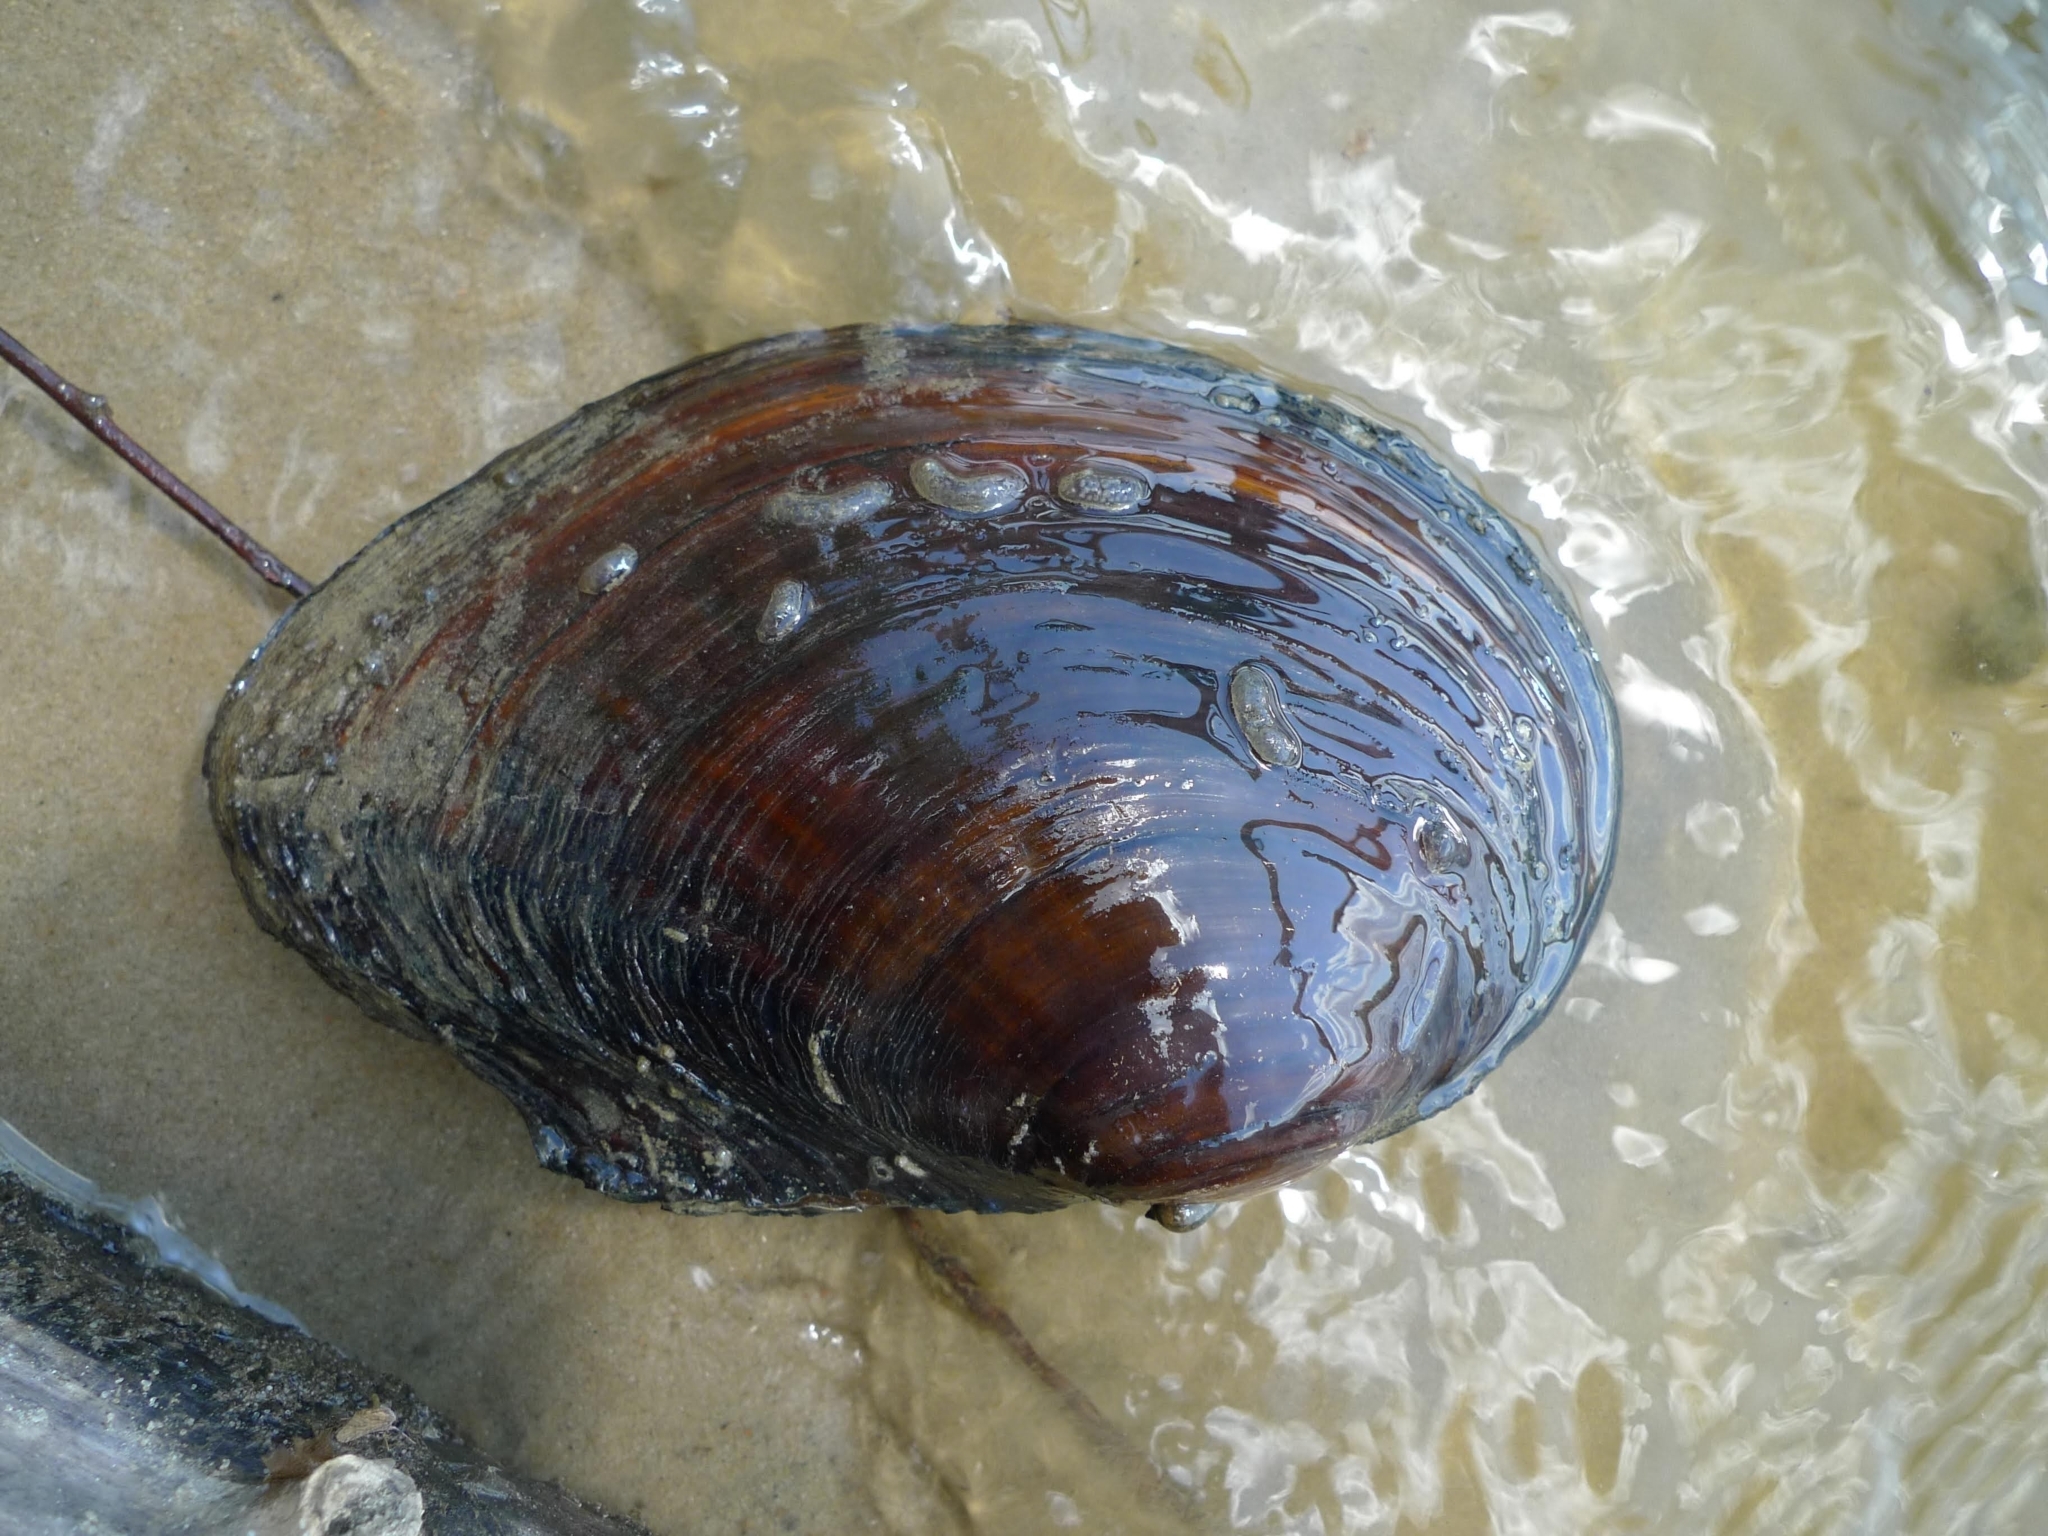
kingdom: Animalia
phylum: Mollusca
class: Bivalvia
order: Unionida
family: Unionidae
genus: Sinanodonta
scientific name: Sinanodonta woodiana
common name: Chinese pond mussel
